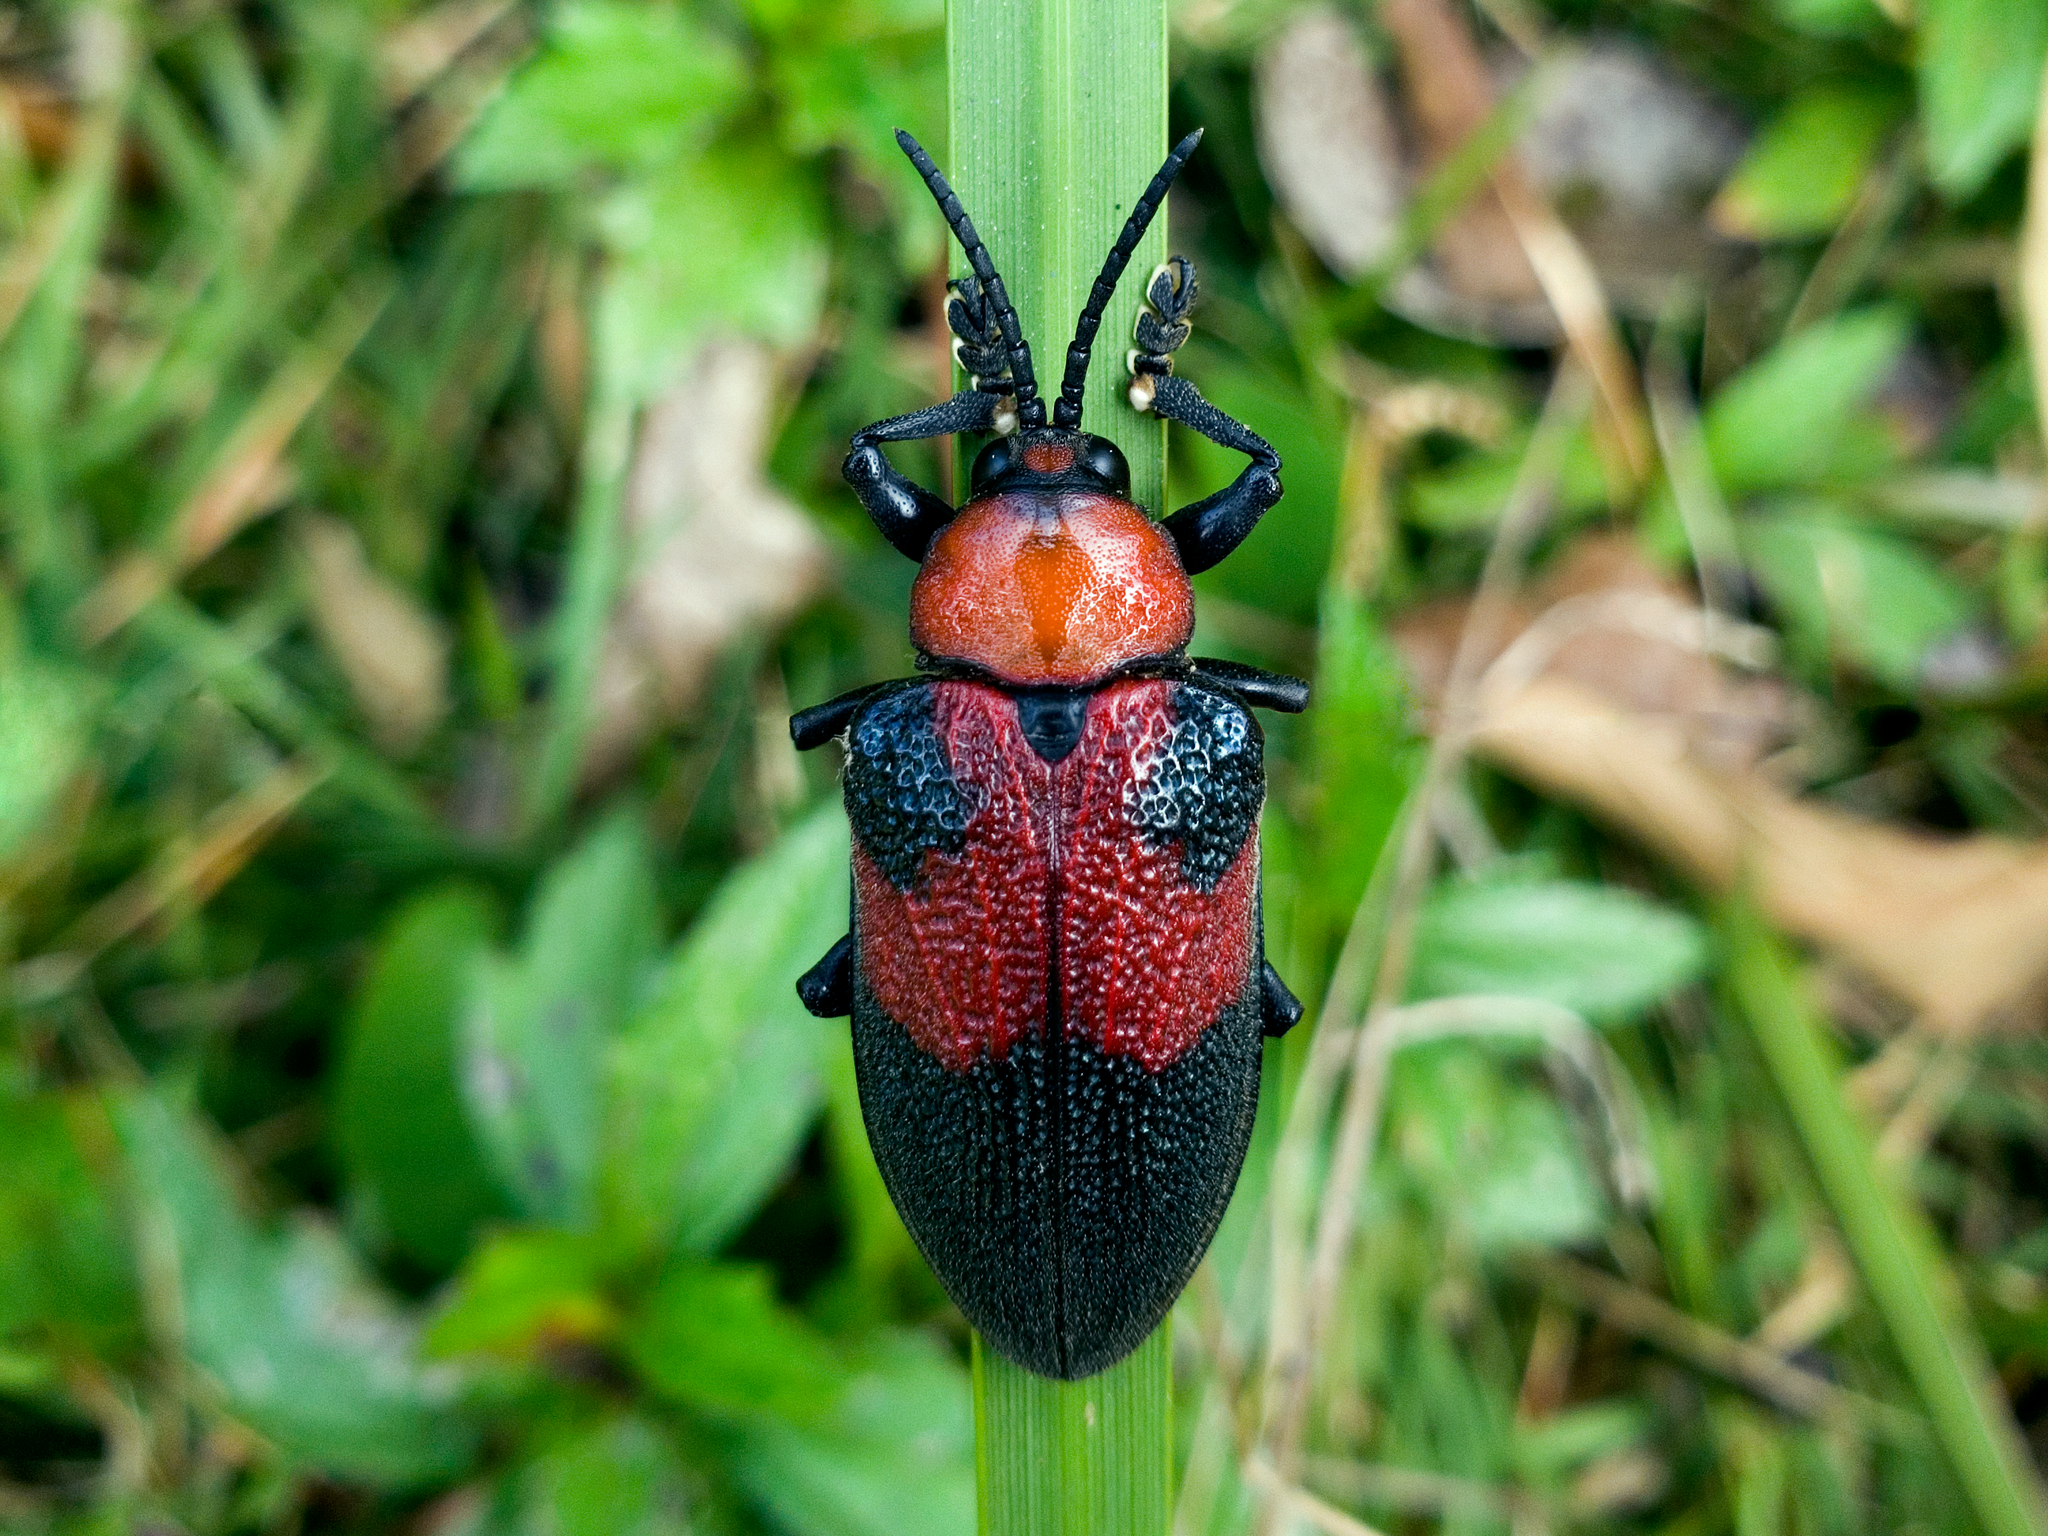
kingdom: Animalia
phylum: Arthropoda
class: Insecta
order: Coleoptera
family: Chrysomelidae
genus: Coraliomela
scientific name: Coraliomela aeneoplagiata
